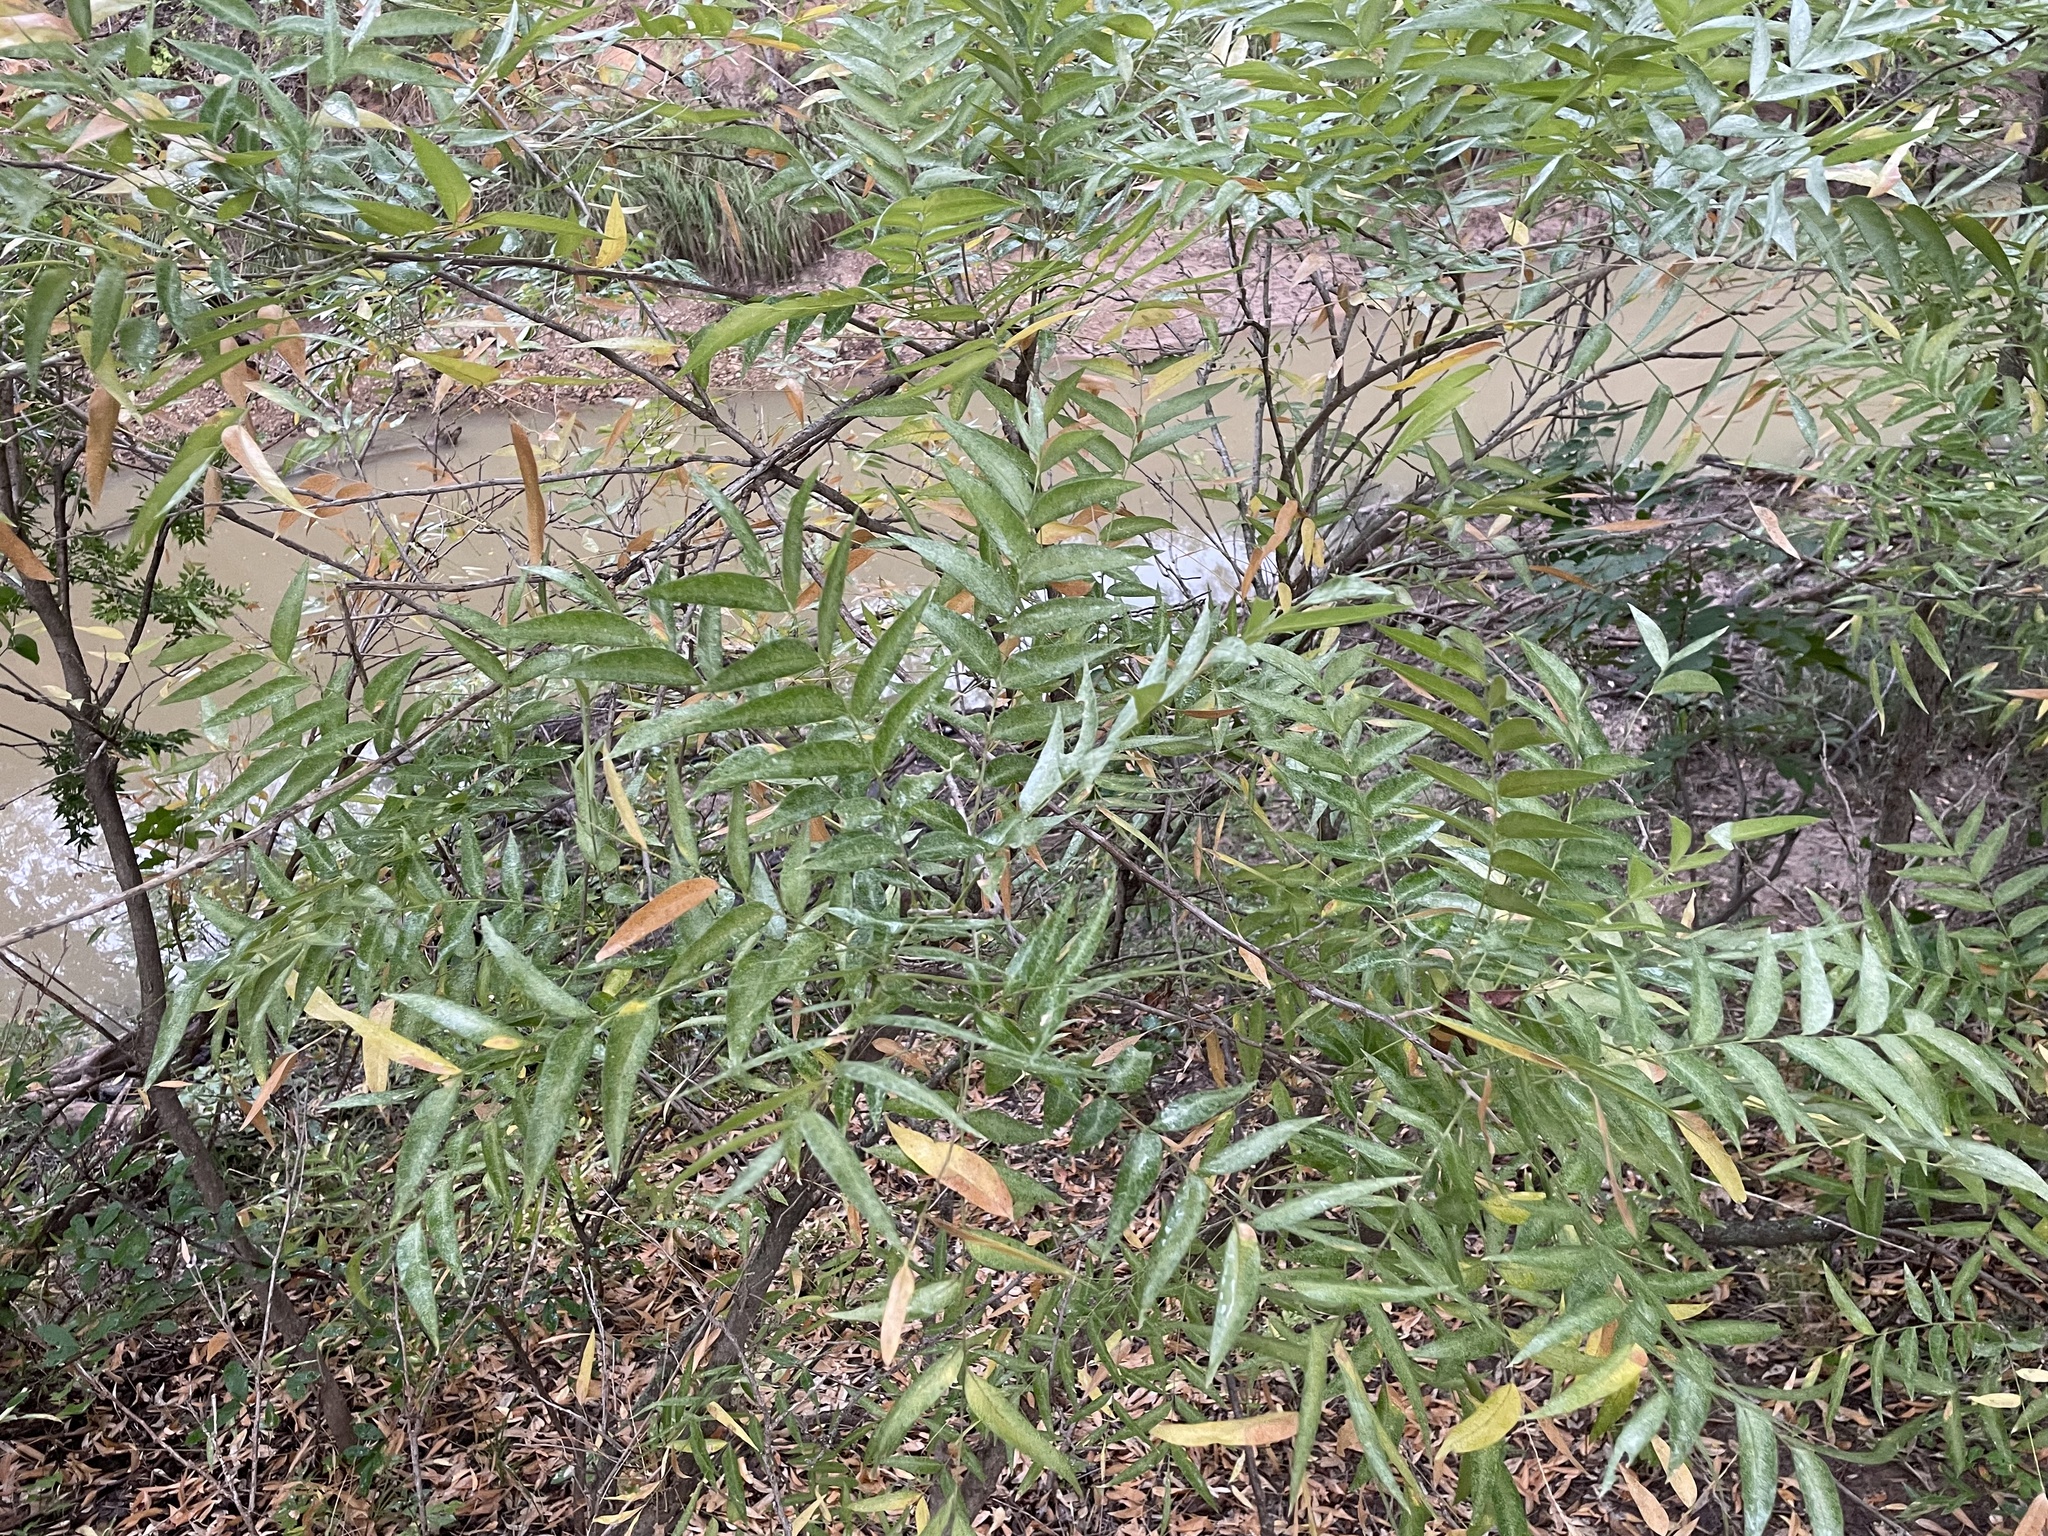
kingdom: Plantae
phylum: Tracheophyta
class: Magnoliopsida
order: Sapindales
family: Sapindaceae
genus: Sapindus
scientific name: Sapindus drummondii
